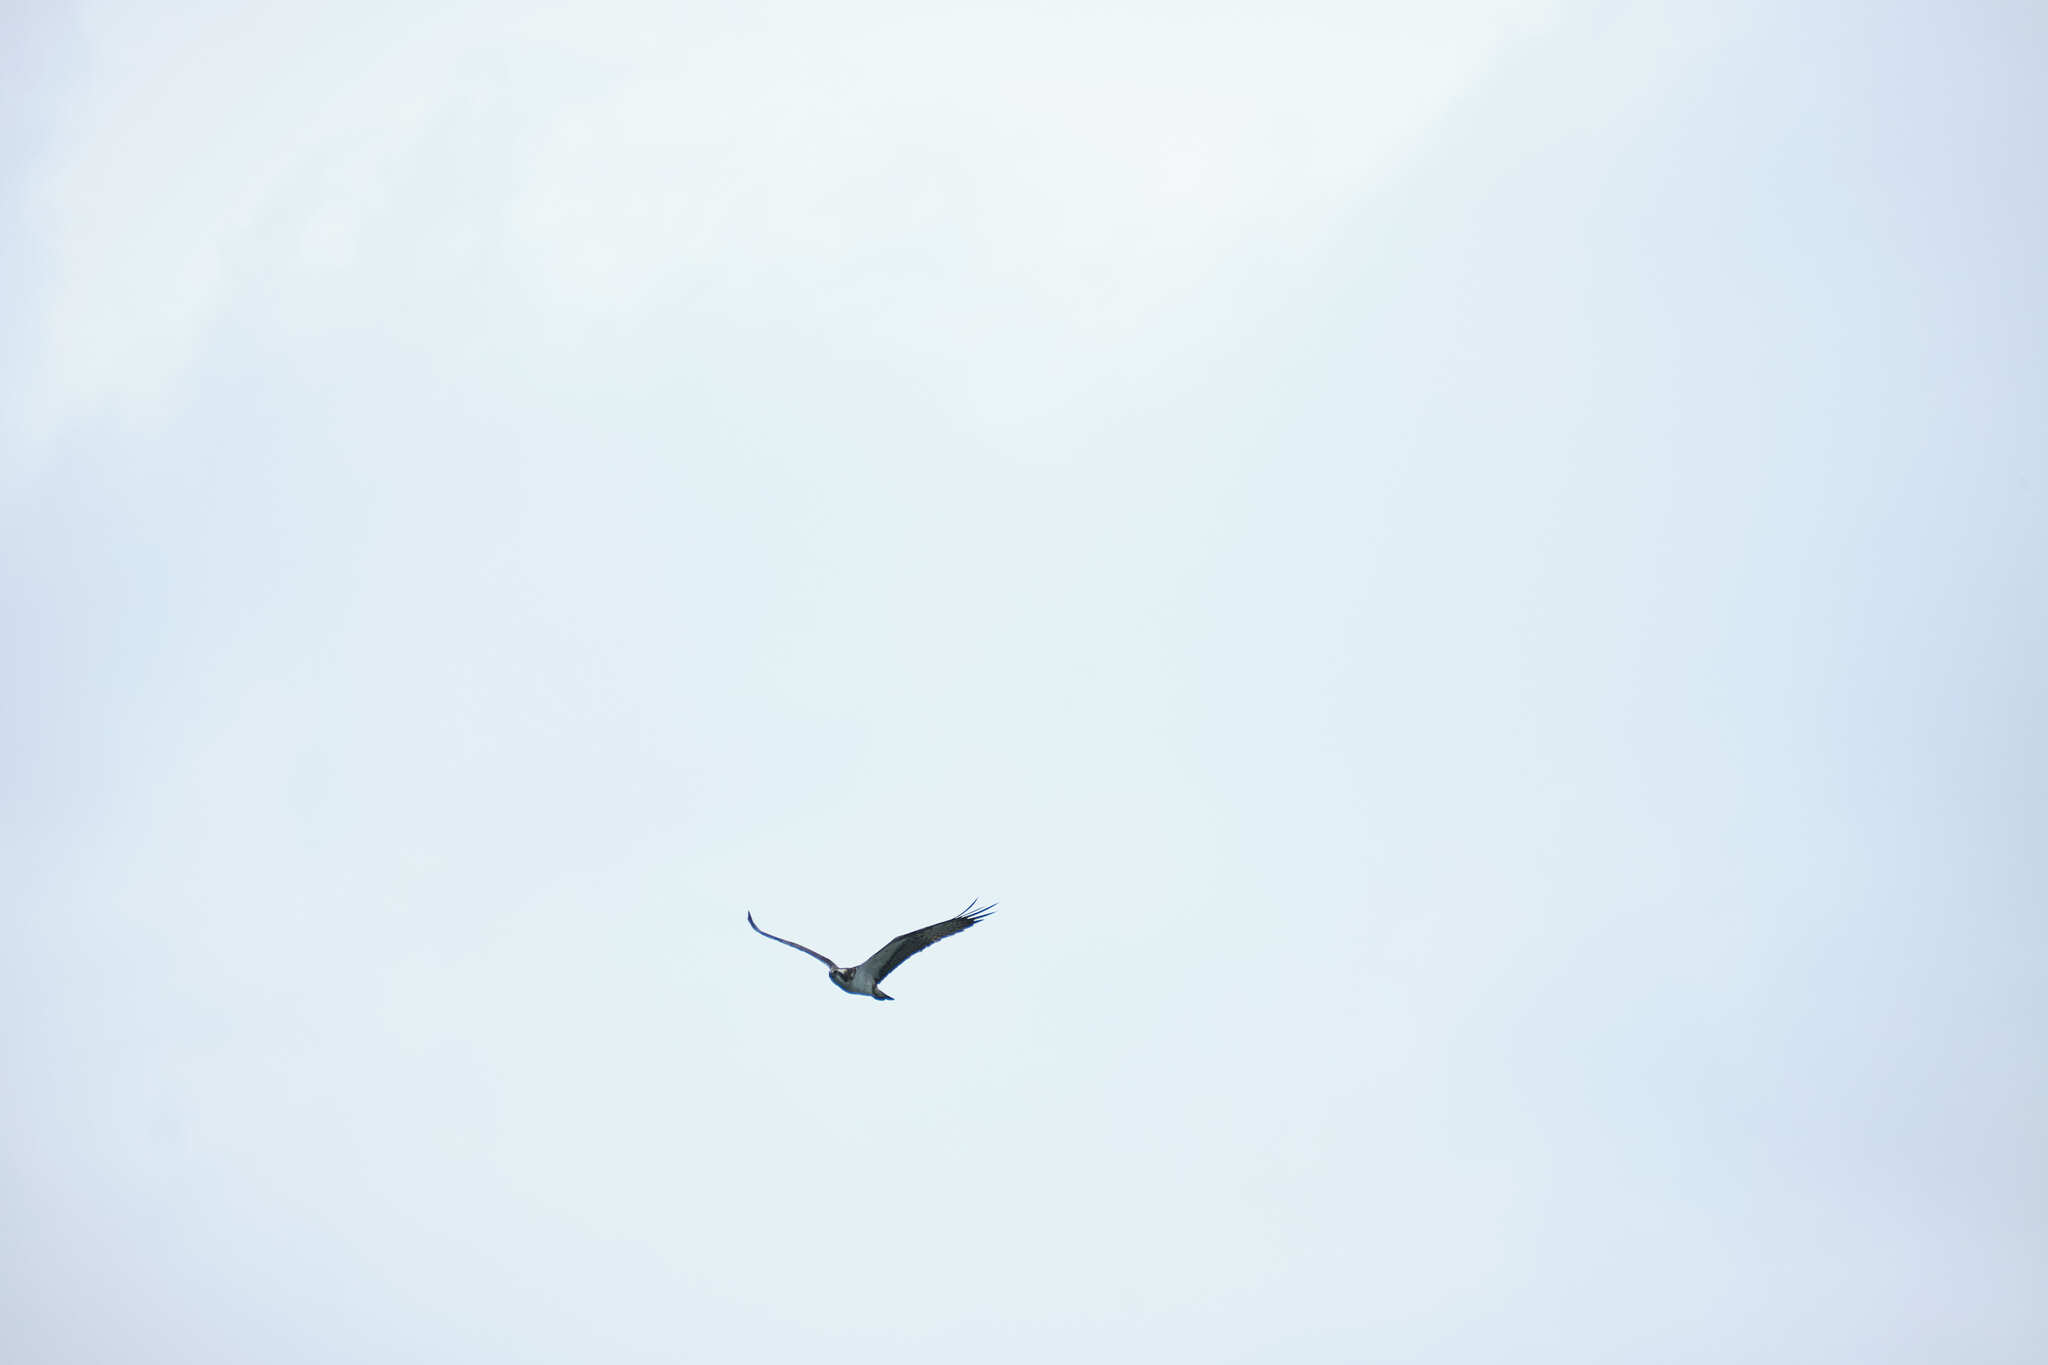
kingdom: Animalia
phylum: Chordata
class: Aves
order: Accipitriformes
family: Pandionidae
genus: Pandion
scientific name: Pandion haliaetus
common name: Osprey
